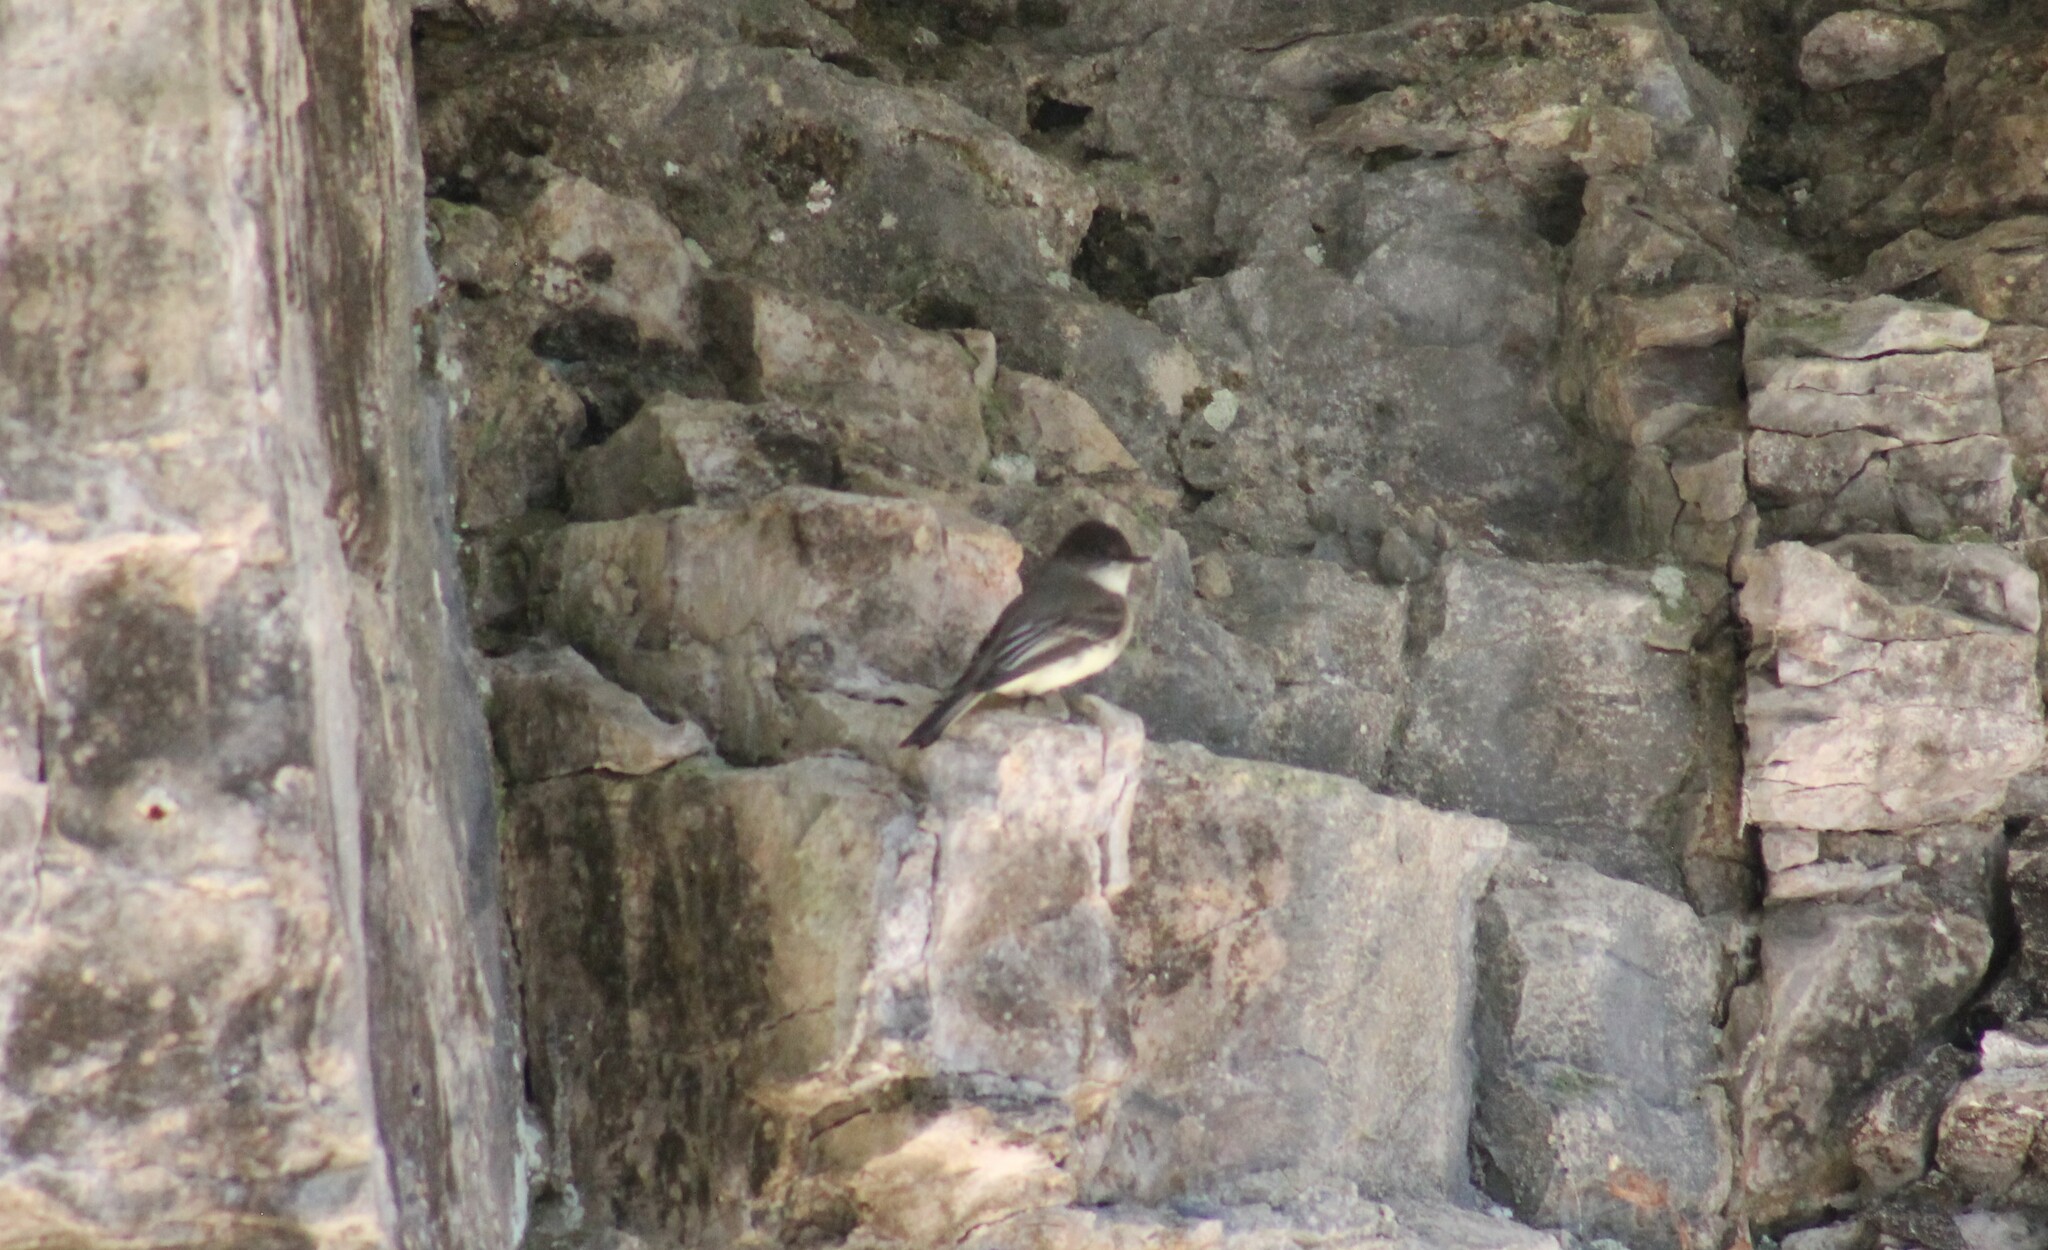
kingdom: Animalia
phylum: Chordata
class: Aves
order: Passeriformes
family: Tyrannidae
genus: Sayornis
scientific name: Sayornis phoebe
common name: Eastern phoebe
